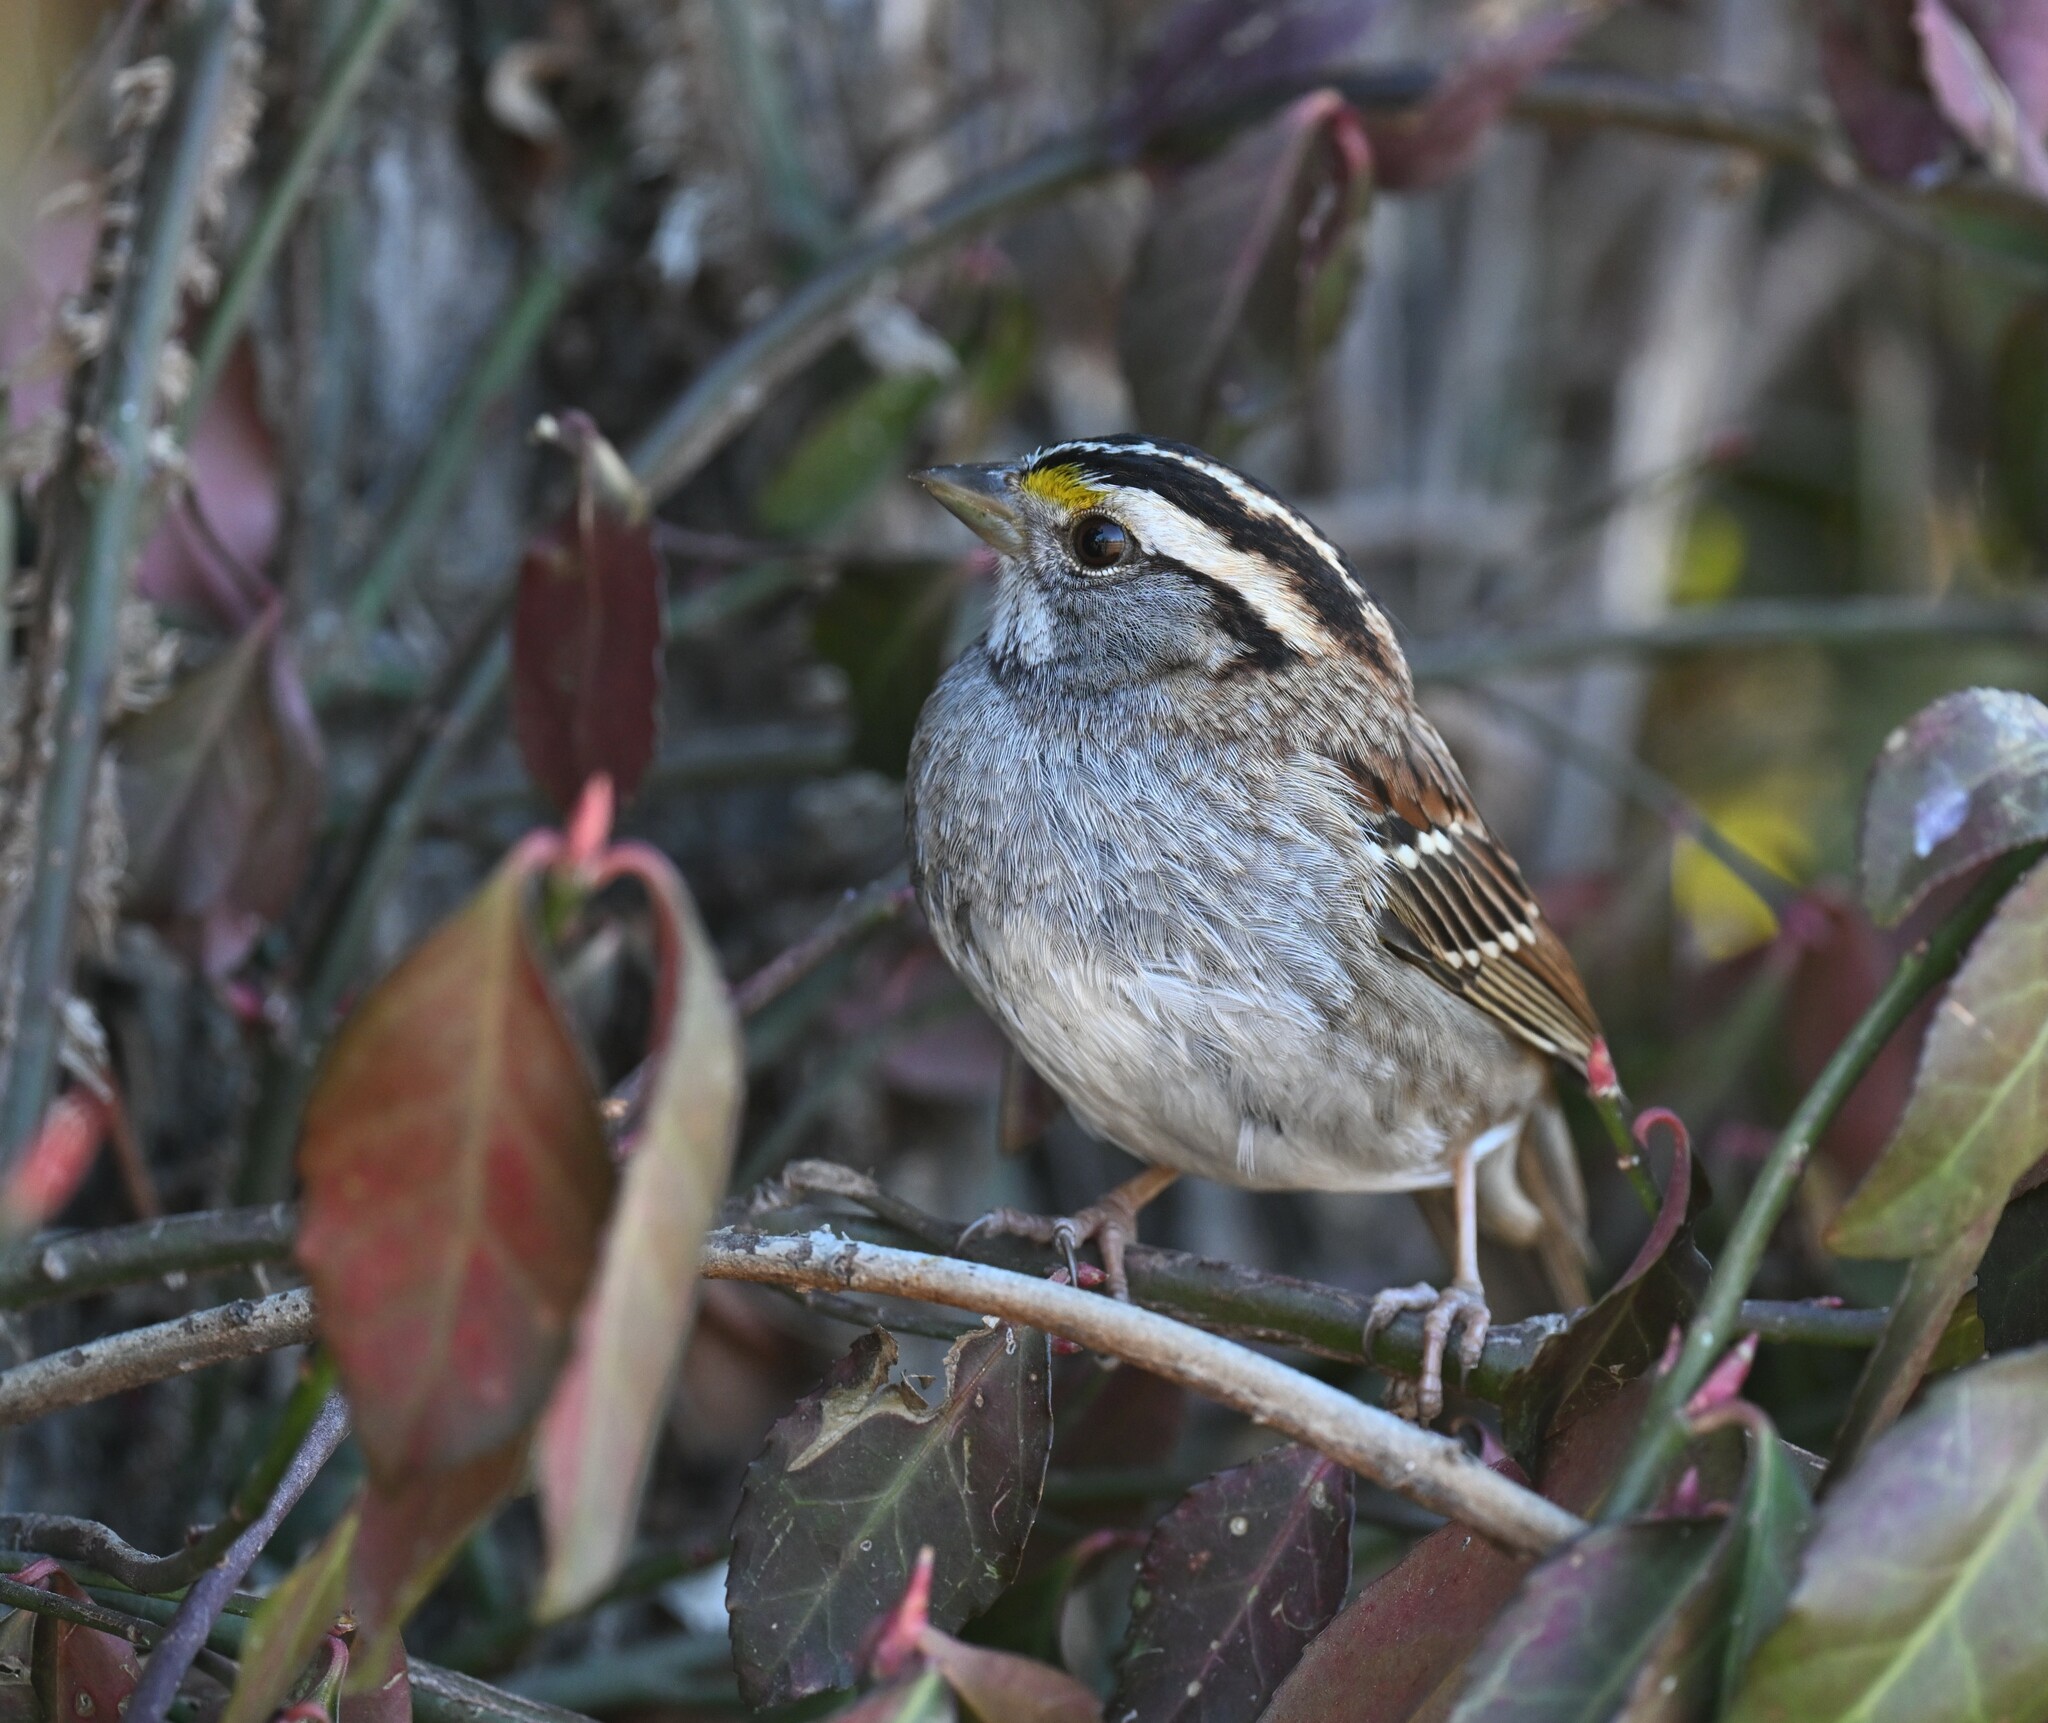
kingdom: Animalia
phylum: Chordata
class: Aves
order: Passeriformes
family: Passerellidae
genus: Zonotrichia
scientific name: Zonotrichia albicollis
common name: White-throated sparrow
